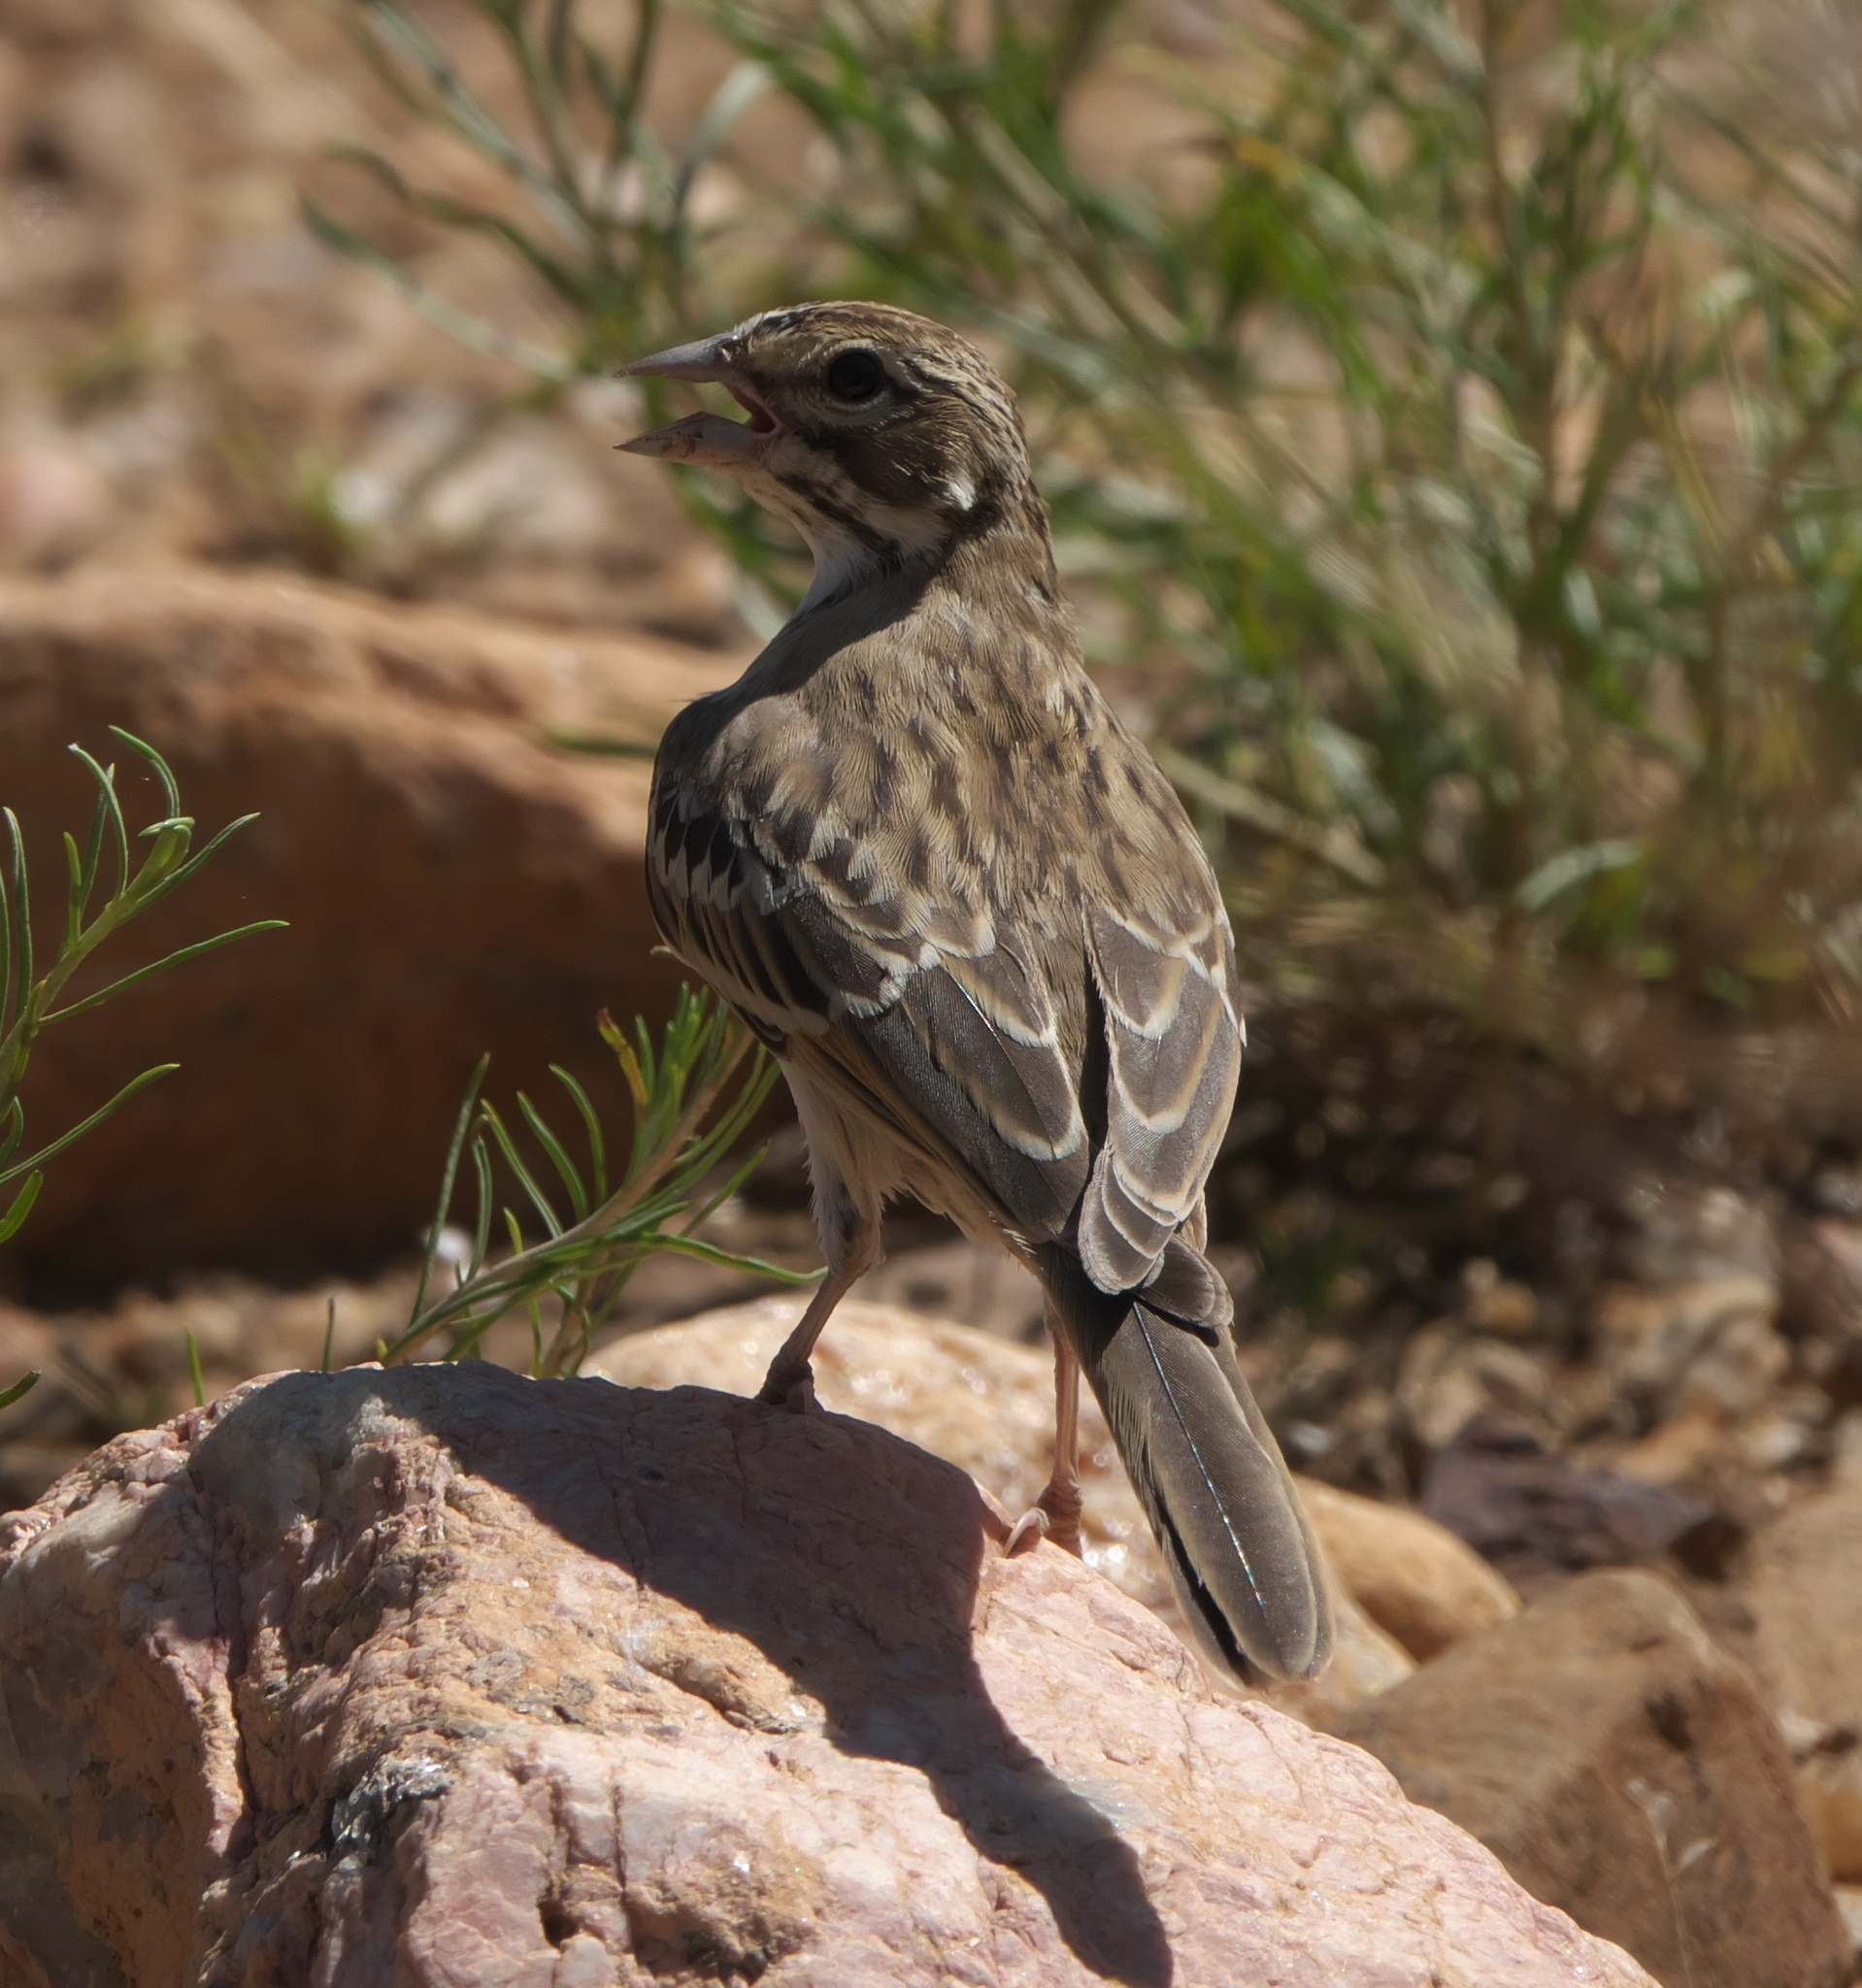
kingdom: Animalia
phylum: Chordata
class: Aves
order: Passeriformes
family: Passerellidae
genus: Chondestes
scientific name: Chondestes grammacus
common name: Lark sparrow
